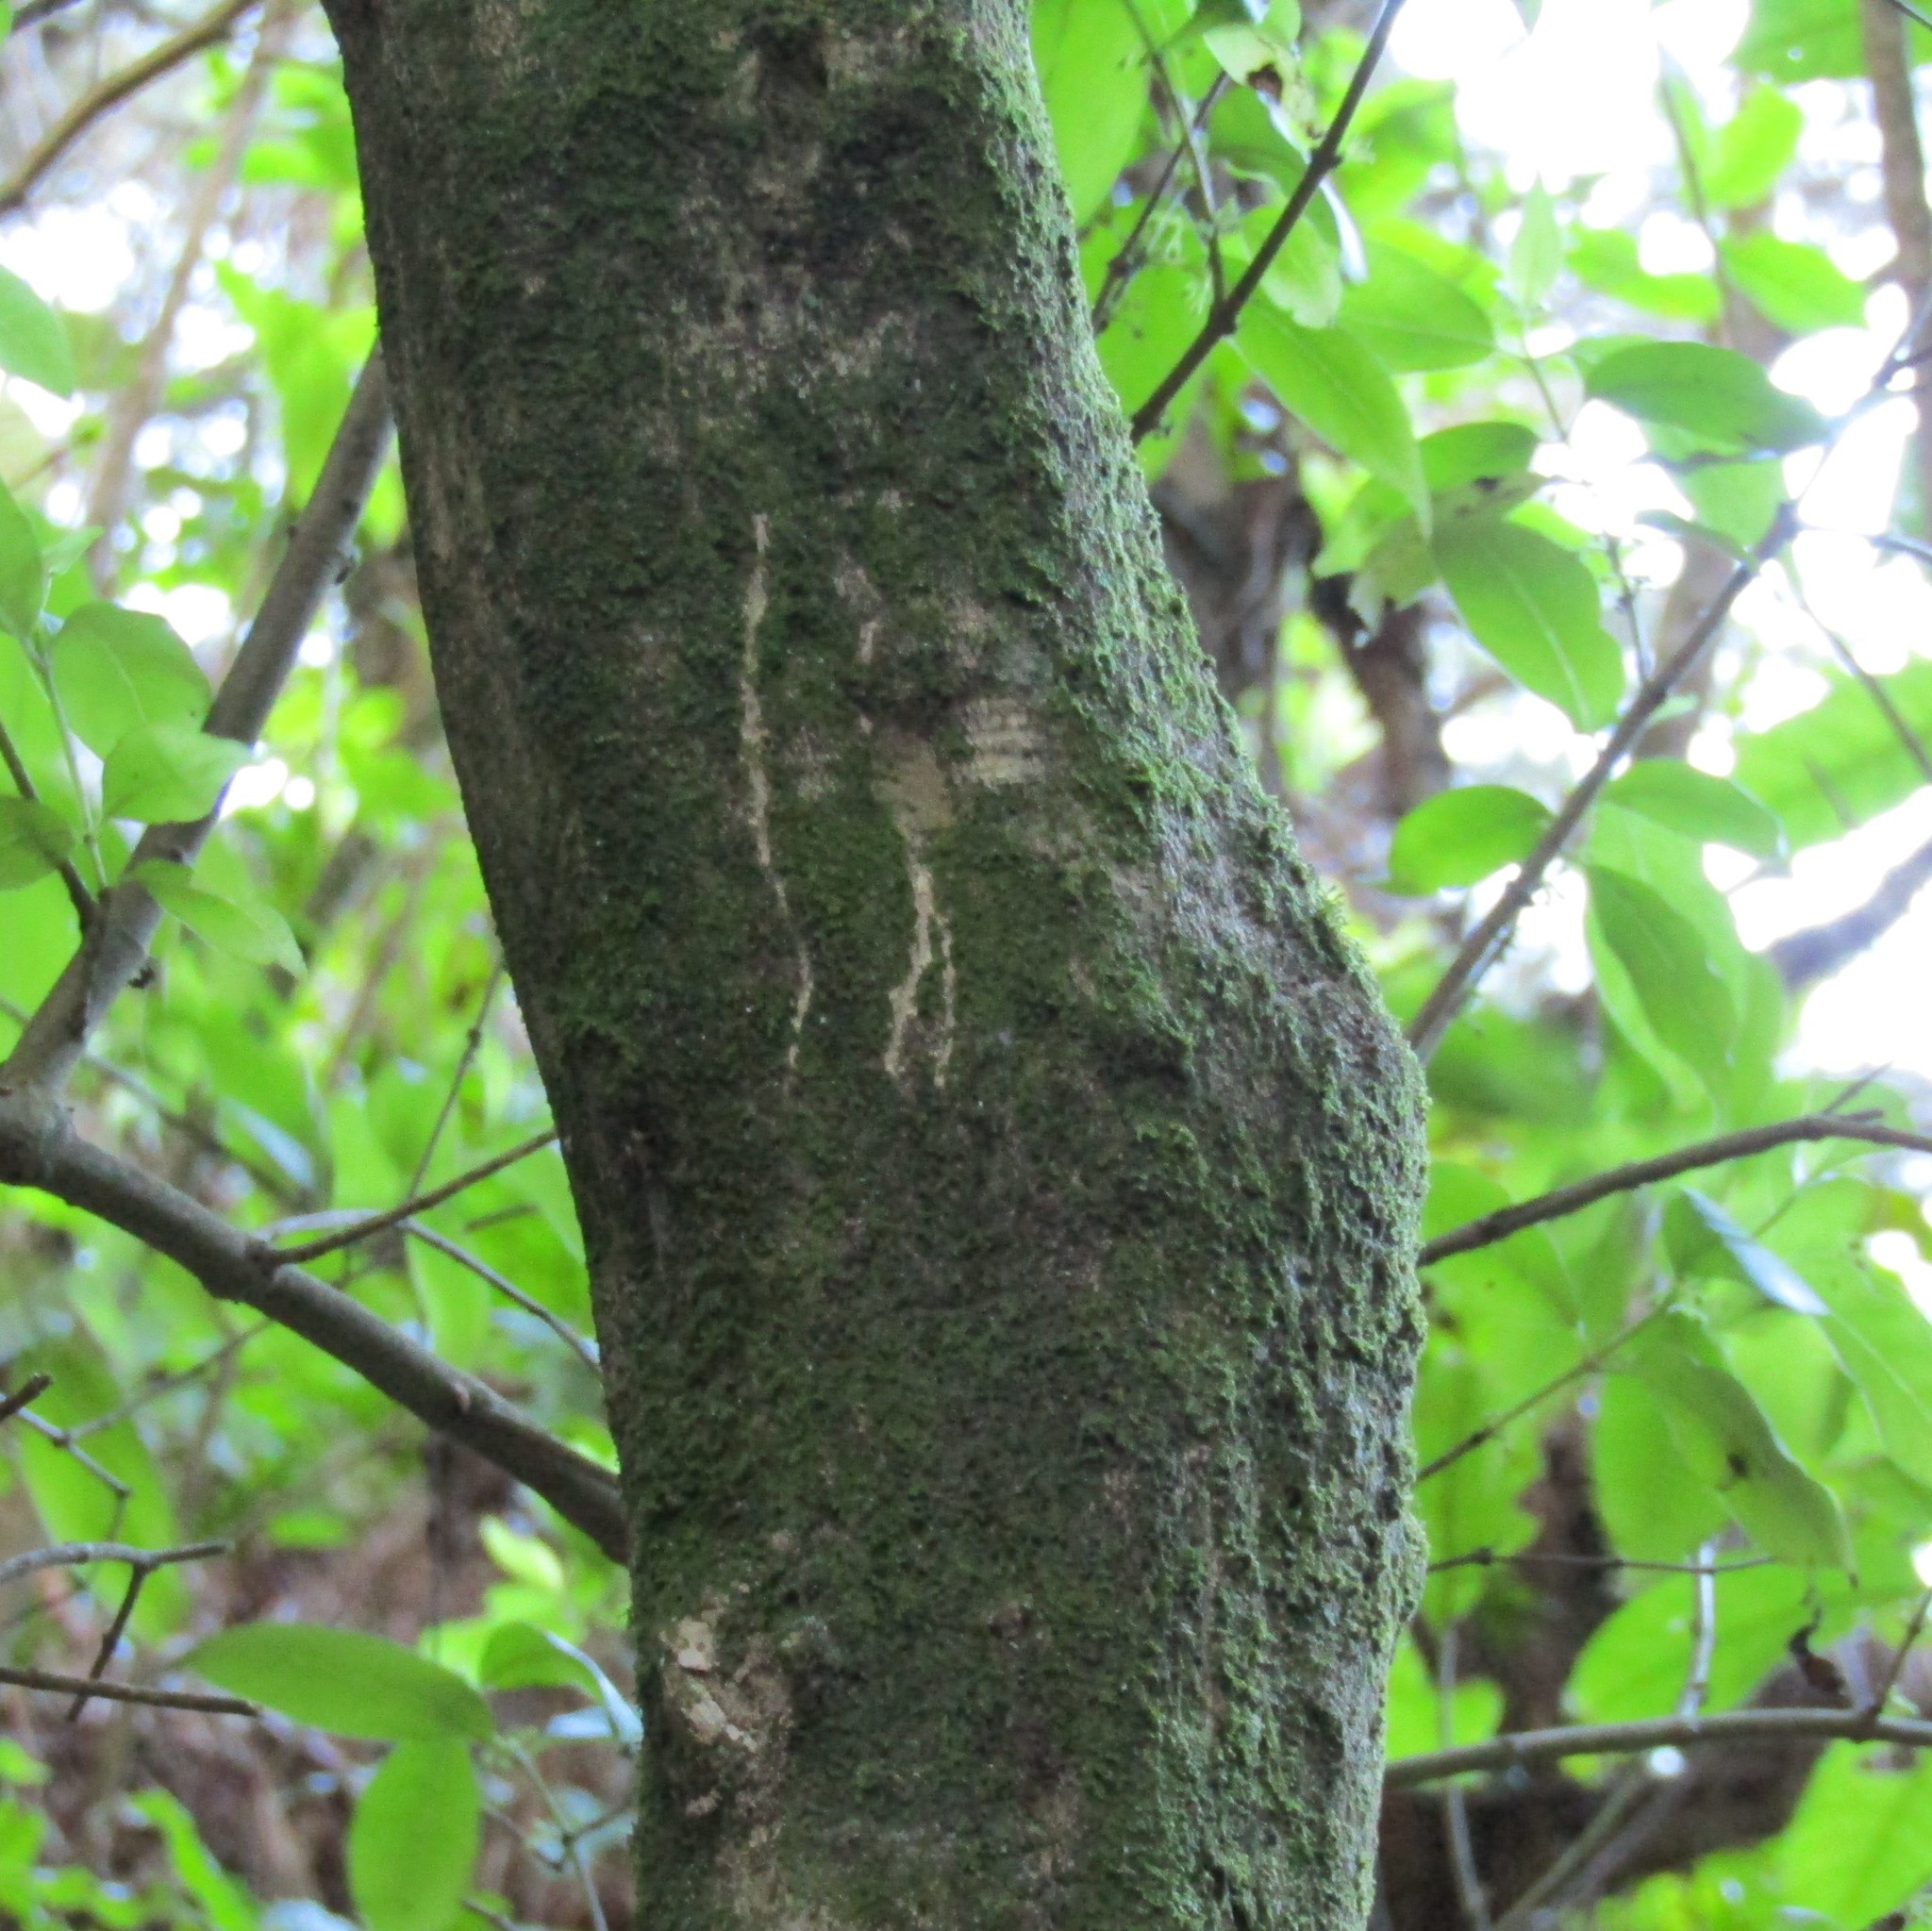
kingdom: Animalia
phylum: Chordata
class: Mammalia
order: Diprotodontia
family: Phalangeridae
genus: Trichosurus
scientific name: Trichosurus vulpecula
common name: Common brushtail
